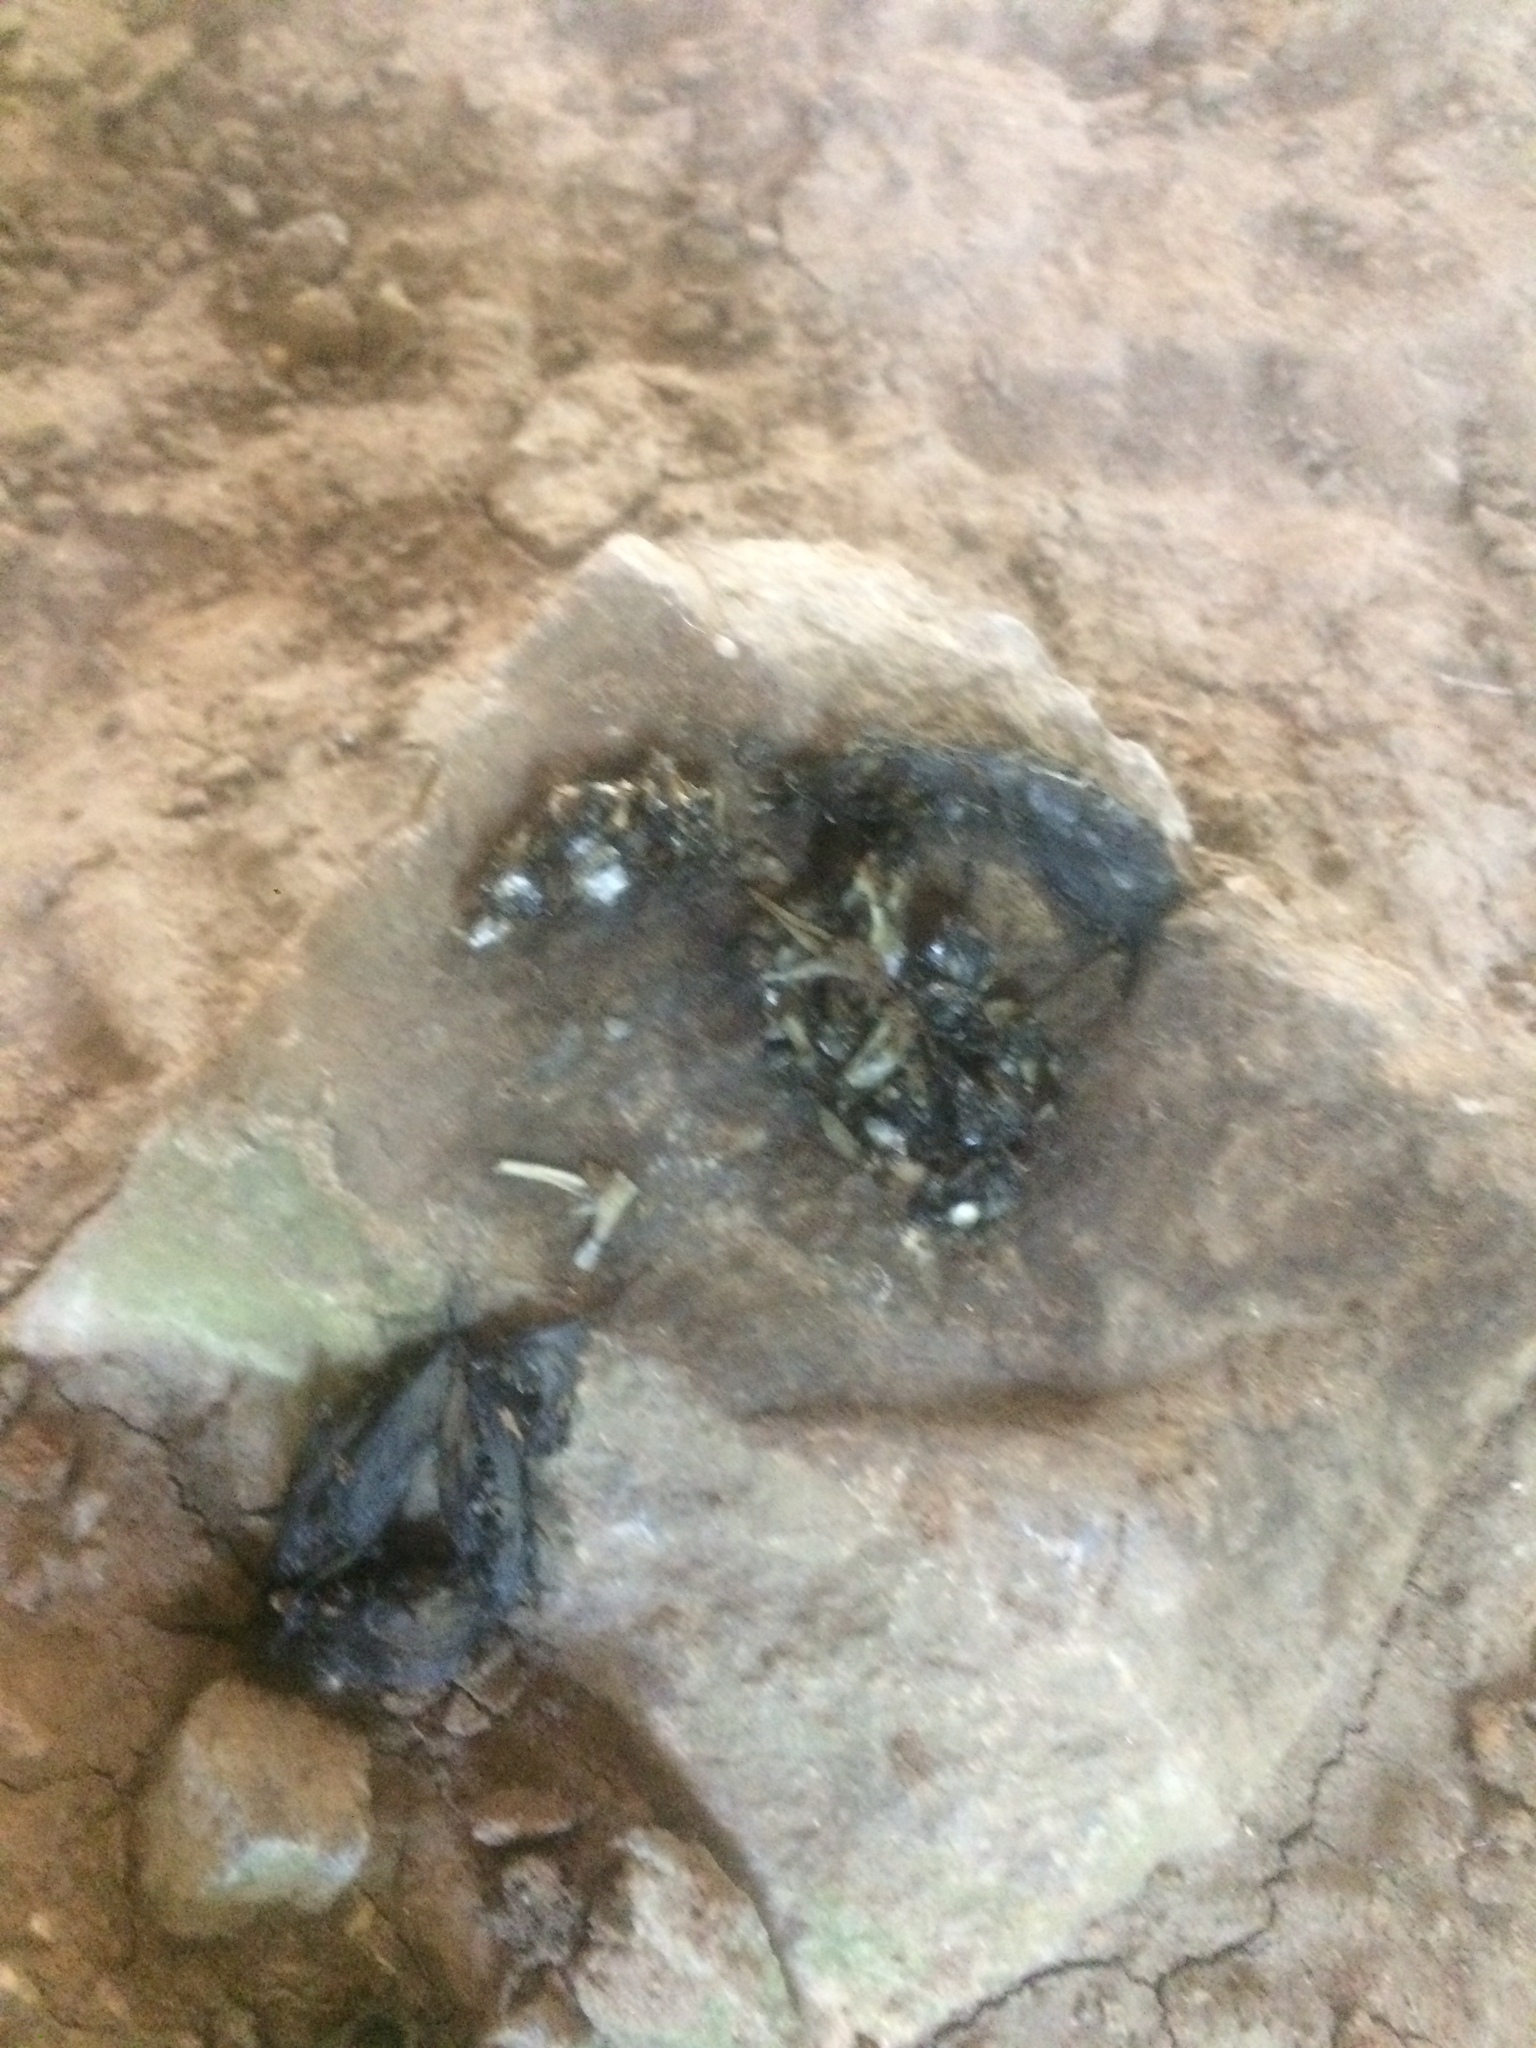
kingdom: Animalia
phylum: Chordata
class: Mammalia
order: Carnivora
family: Mustelidae
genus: Lutra
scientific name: Lutra lutra
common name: European otter
